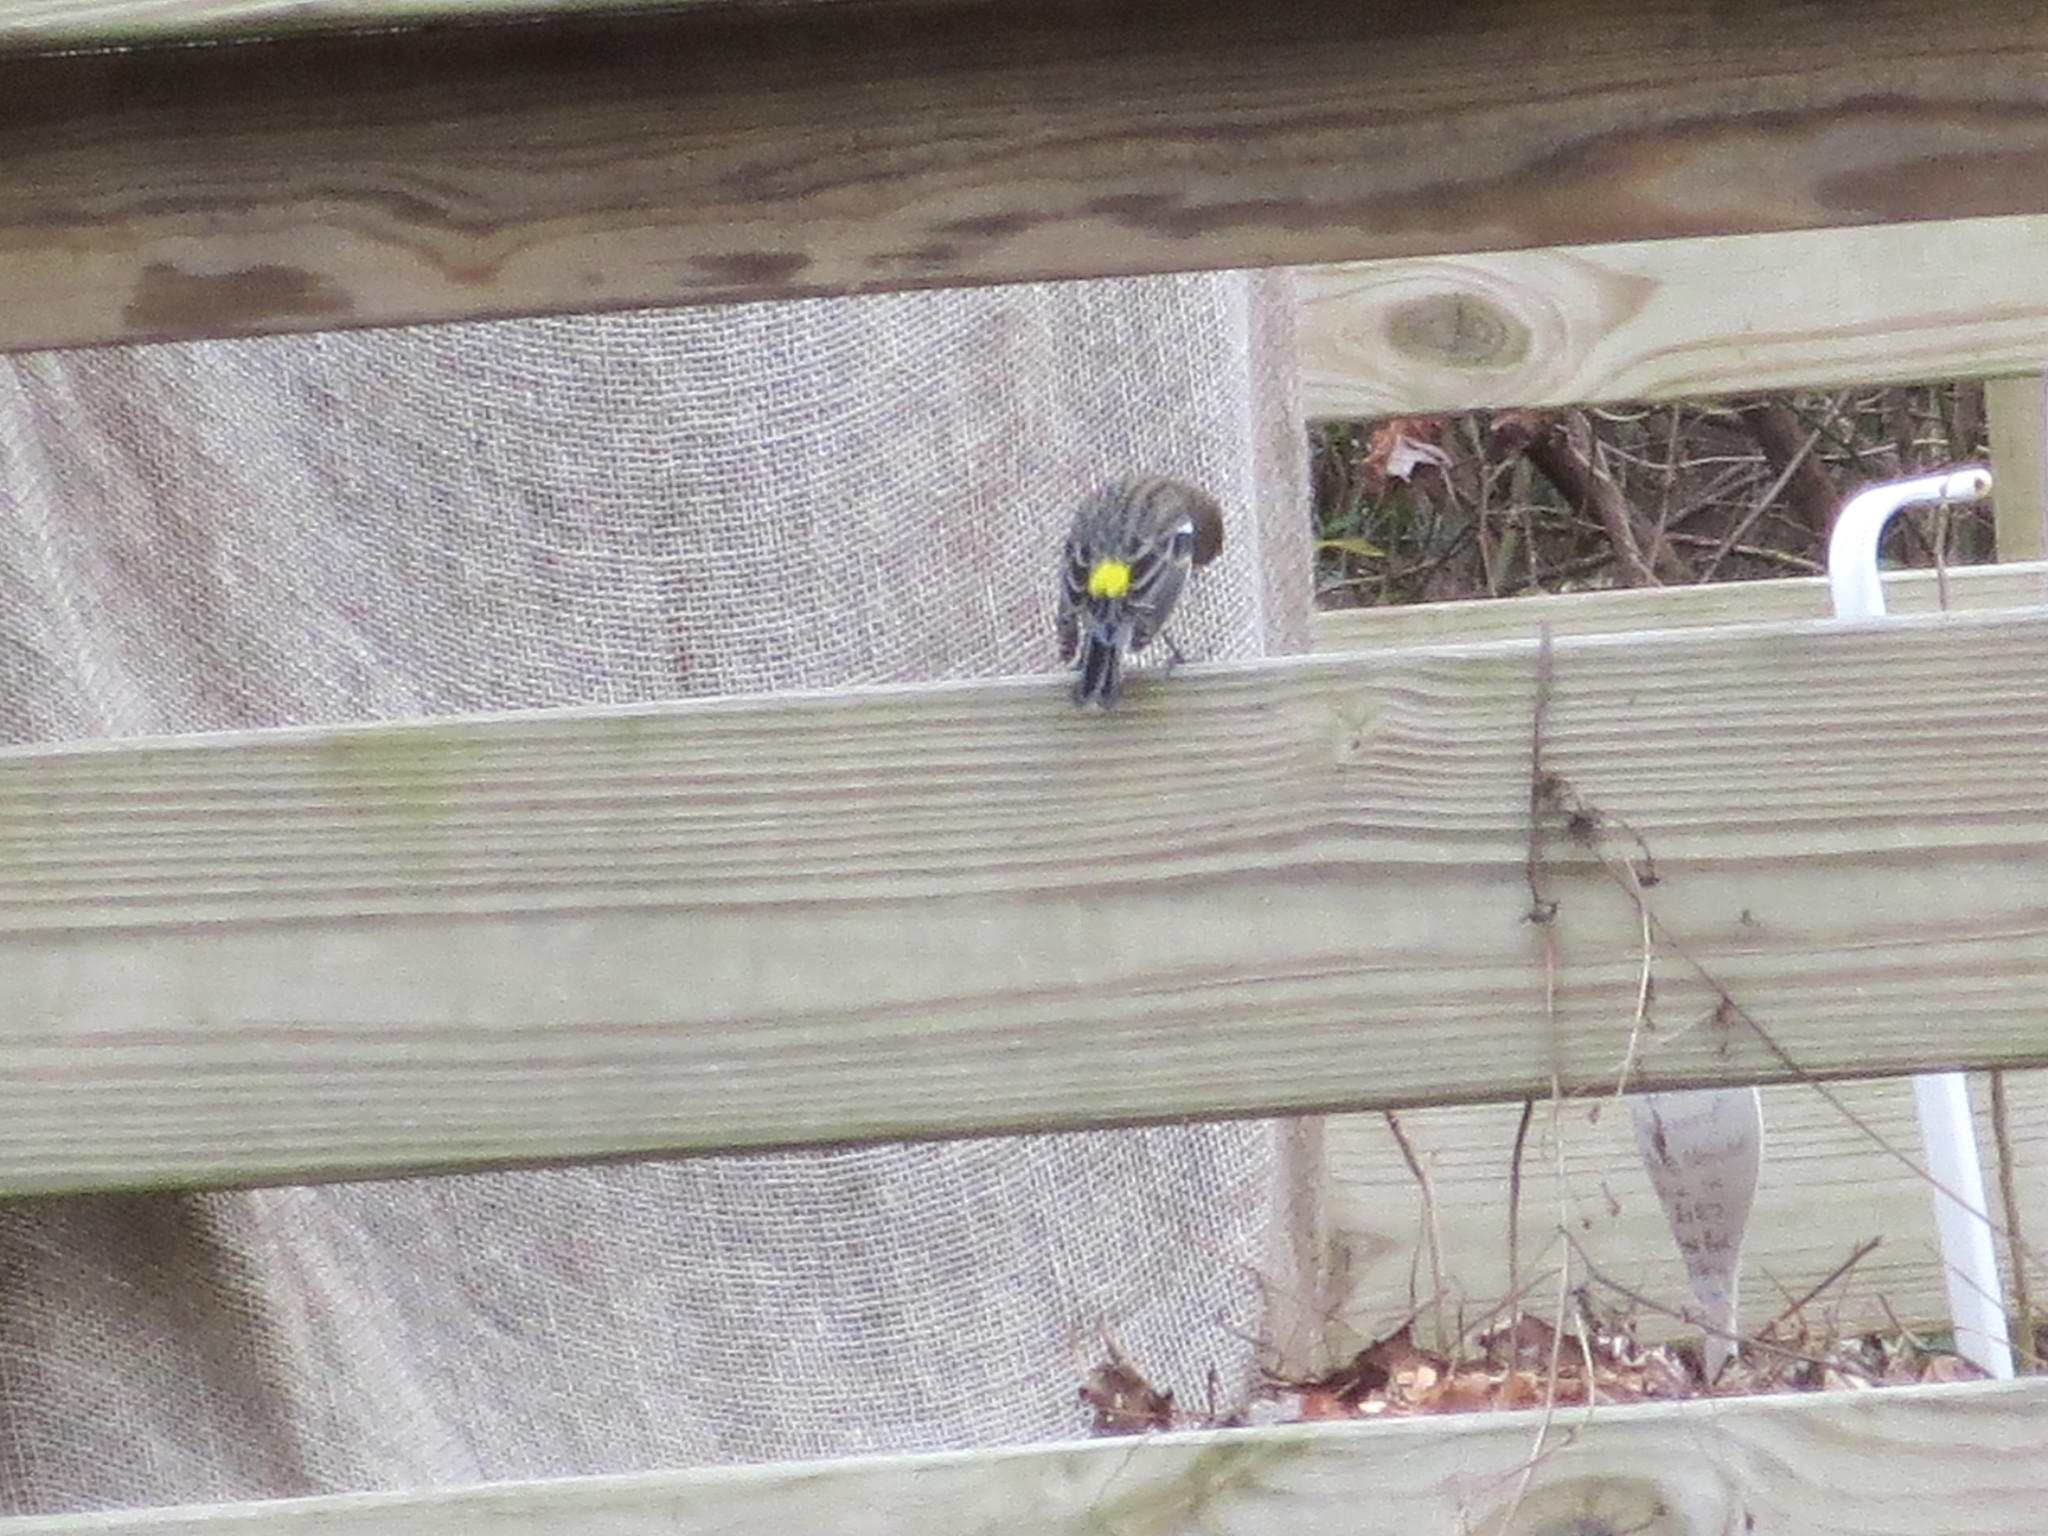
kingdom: Animalia
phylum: Chordata
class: Aves
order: Passeriformes
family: Parulidae
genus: Setophaga
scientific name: Setophaga coronata
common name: Myrtle warbler
